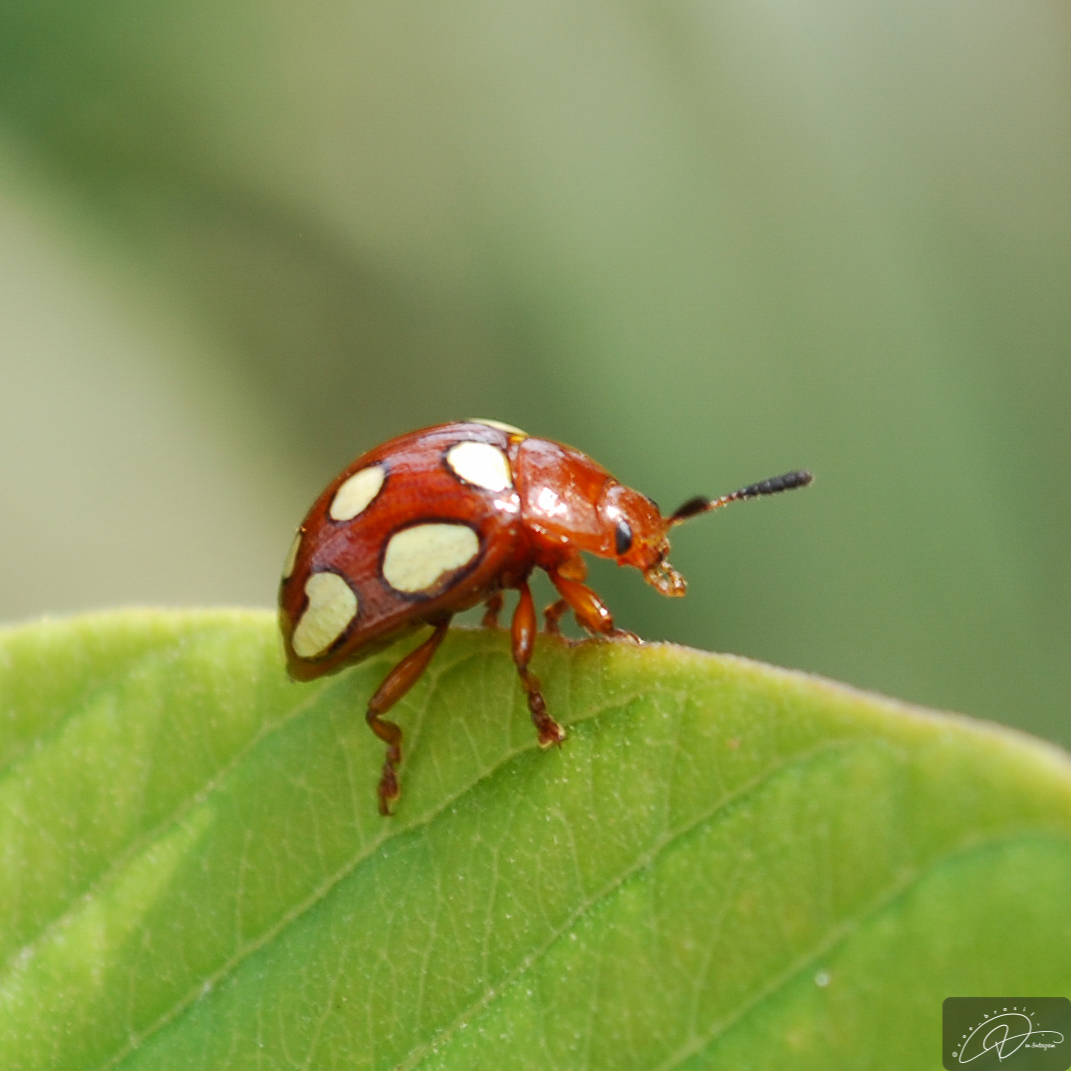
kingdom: Animalia
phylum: Arthropoda
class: Insecta
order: Coleoptera
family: Chrysomelidae
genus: Stilodes
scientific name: Stilodes
